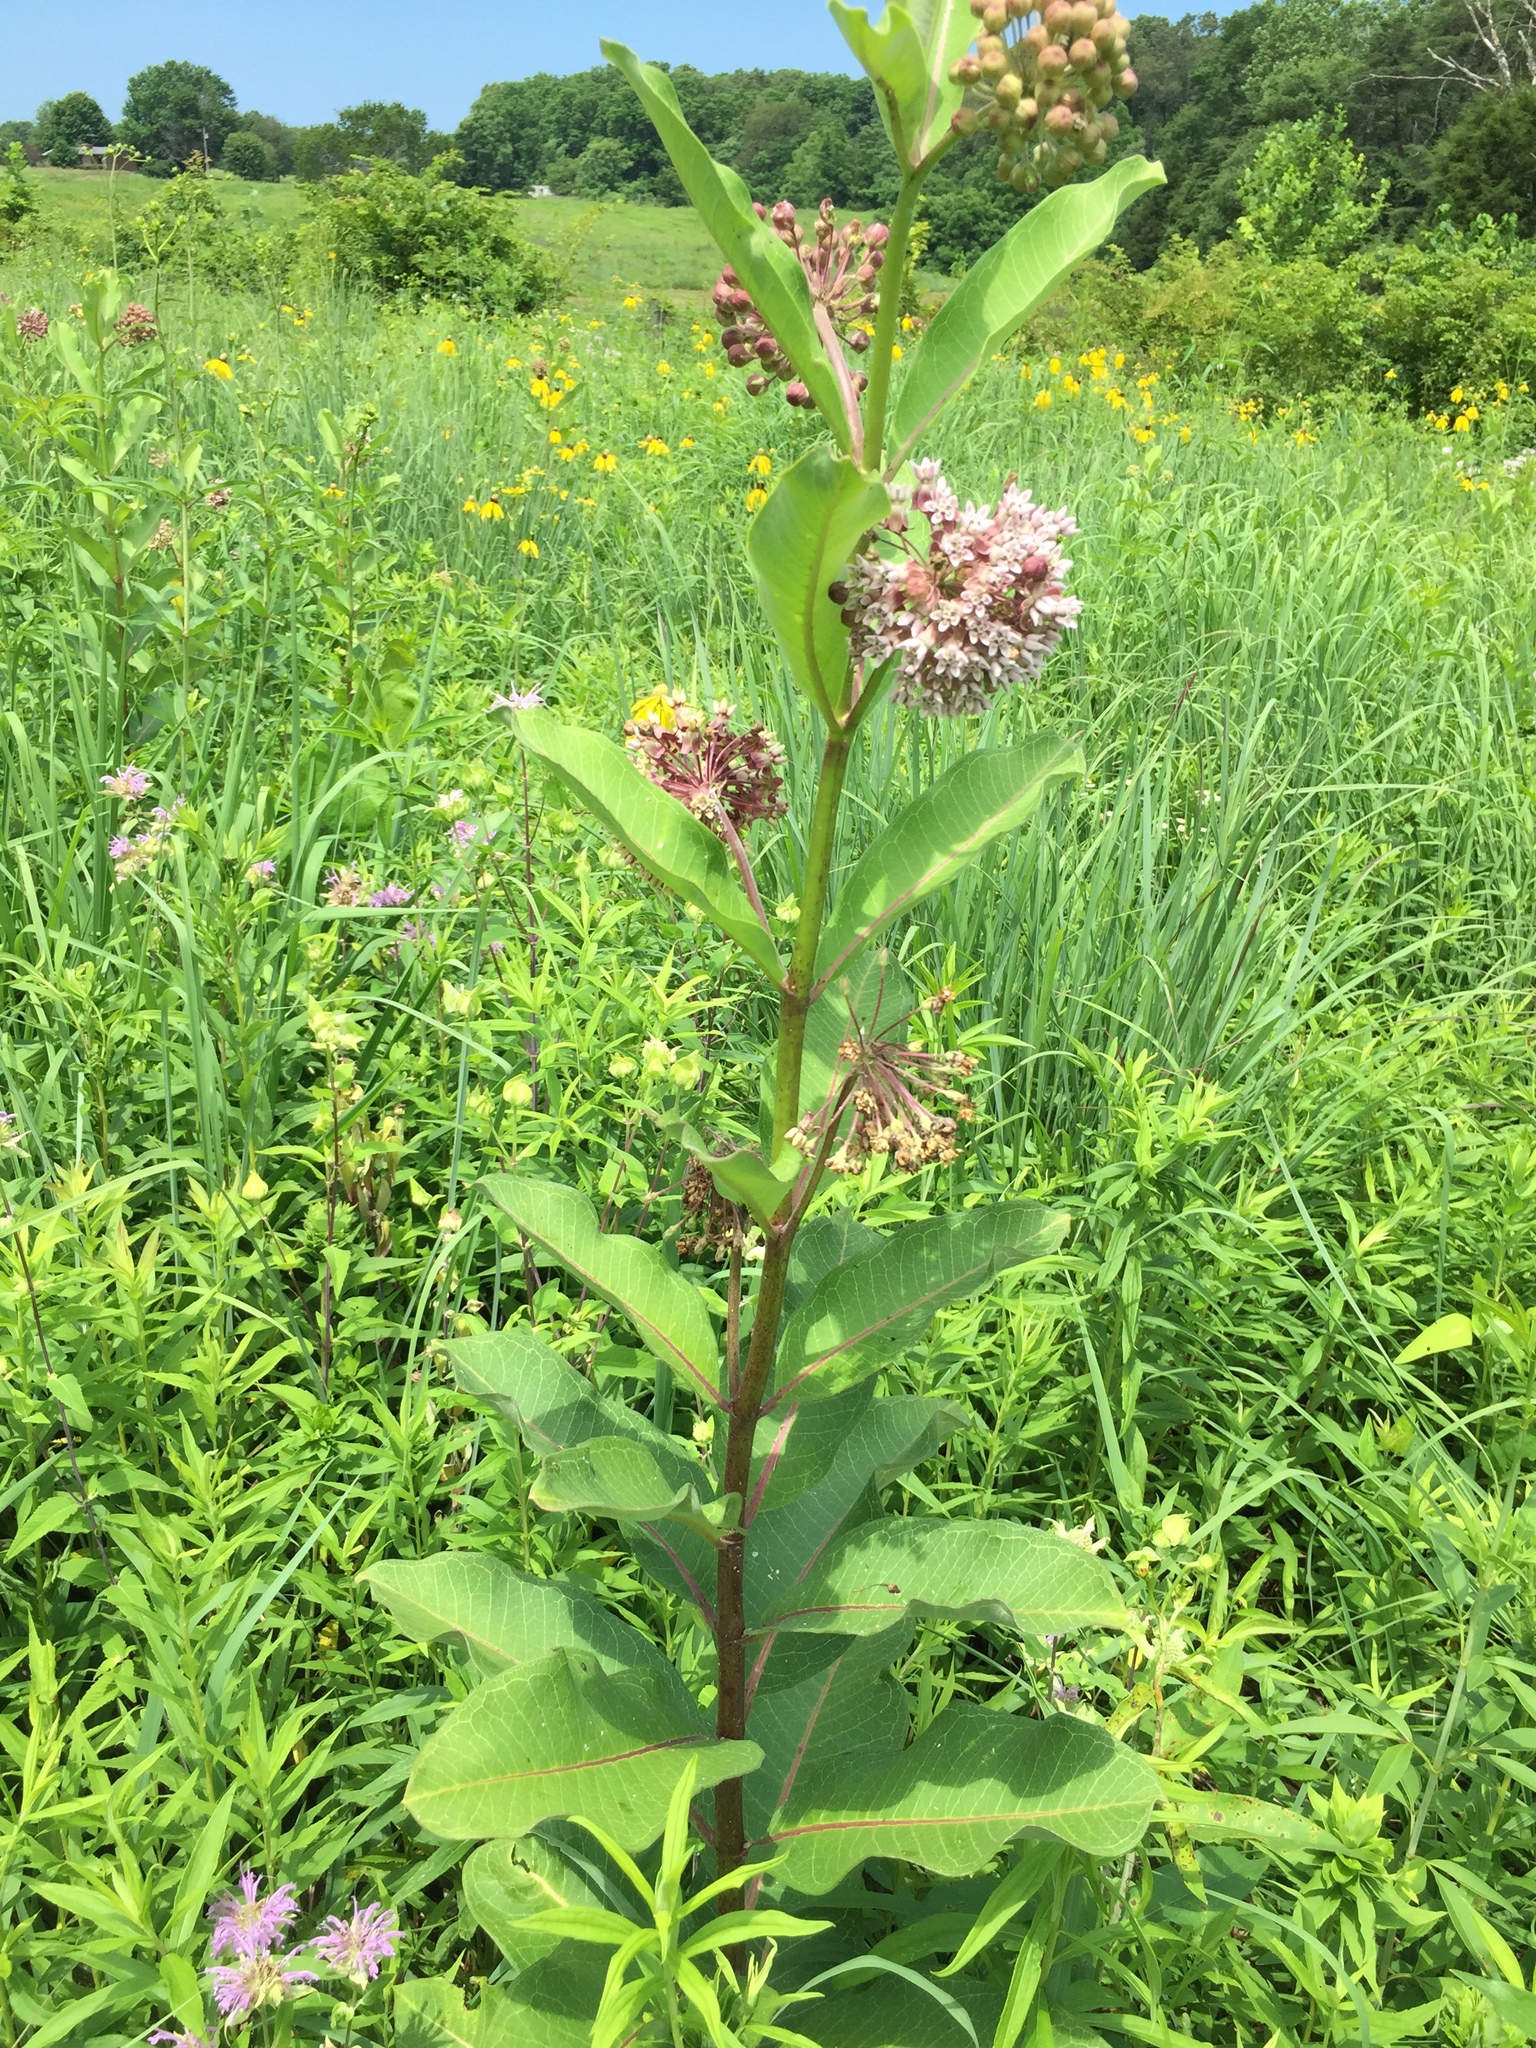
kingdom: Plantae
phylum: Tracheophyta
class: Magnoliopsida
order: Gentianales
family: Apocynaceae
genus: Asclepias
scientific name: Asclepias syriaca
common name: Common milkweed
